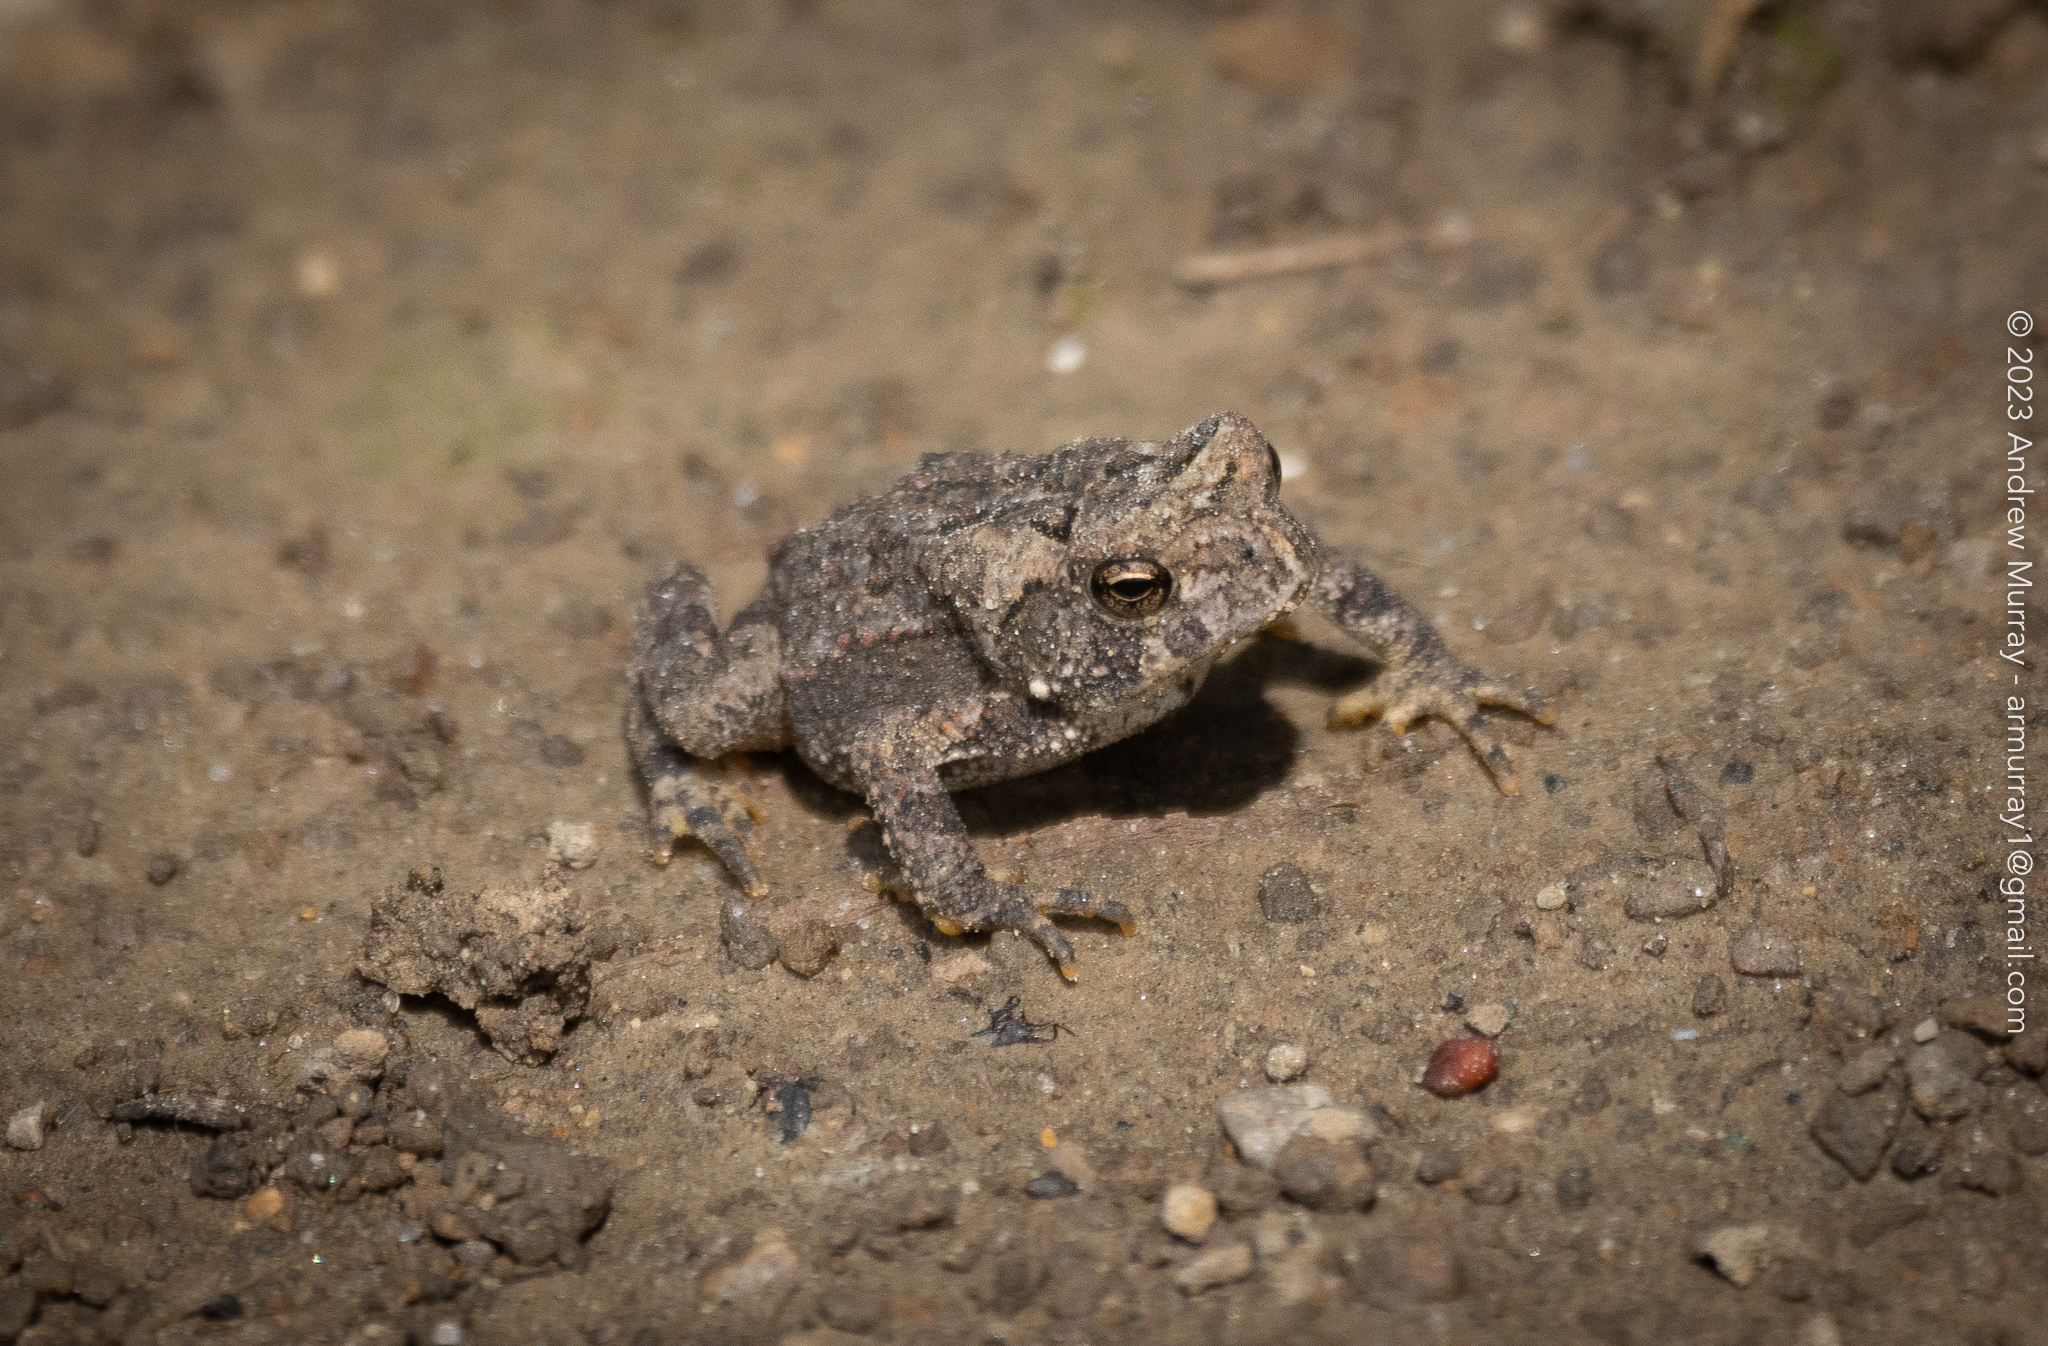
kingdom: Animalia
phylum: Chordata
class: Amphibia
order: Anura
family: Bufonidae
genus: Anaxyrus
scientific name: Anaxyrus americanus
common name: American toad
